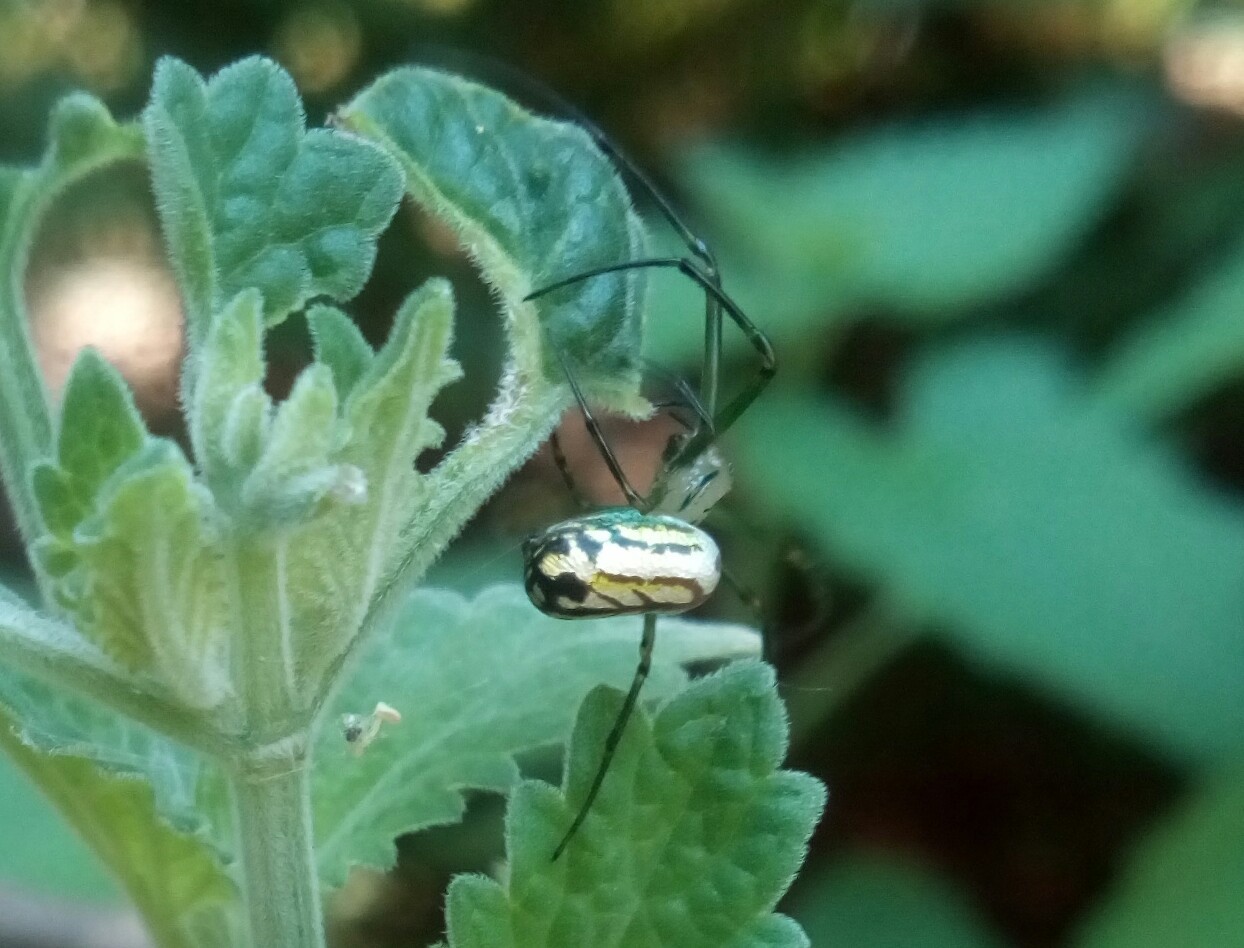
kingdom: Animalia
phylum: Arthropoda
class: Arachnida
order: Araneae
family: Tetragnathidae
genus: Leucauge
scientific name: Leucauge venusta
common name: Longjawed orb weavers
